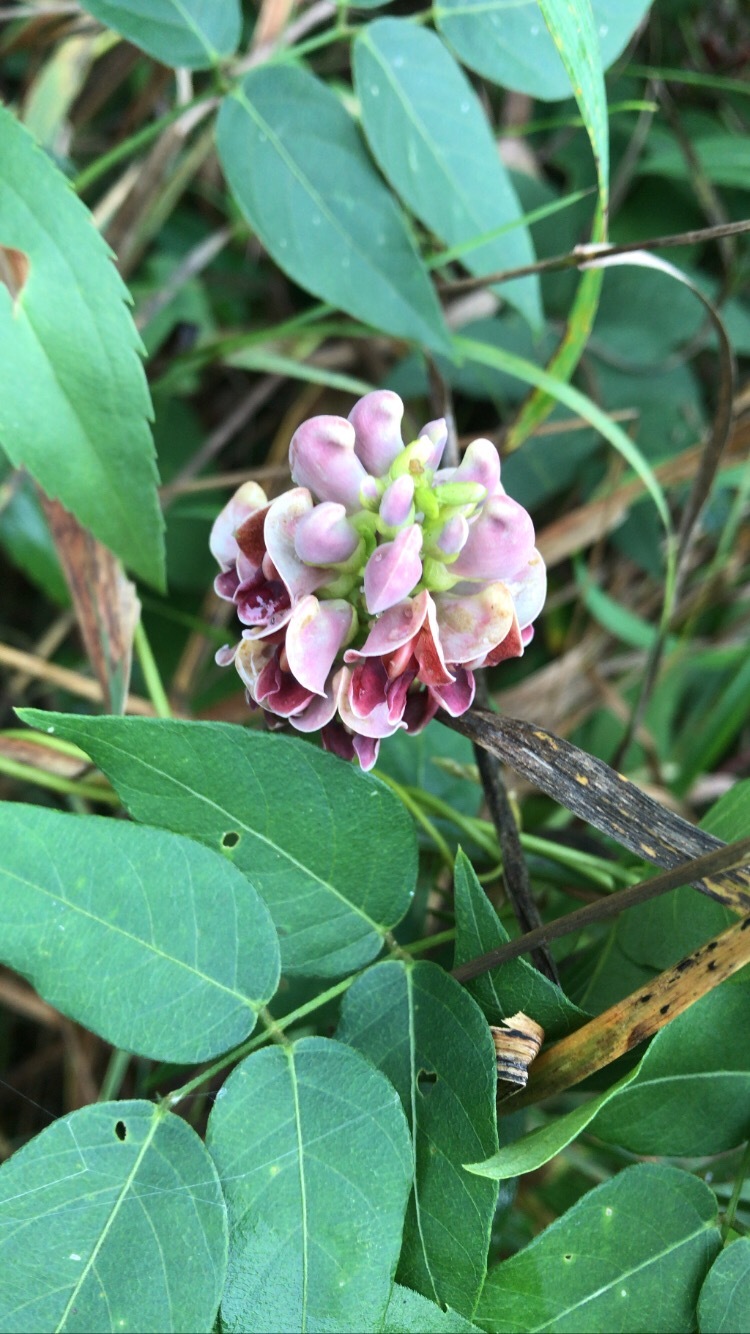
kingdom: Plantae
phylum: Tracheophyta
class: Magnoliopsida
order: Fabales
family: Fabaceae
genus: Apios
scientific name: Apios americana
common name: American potato-bean
